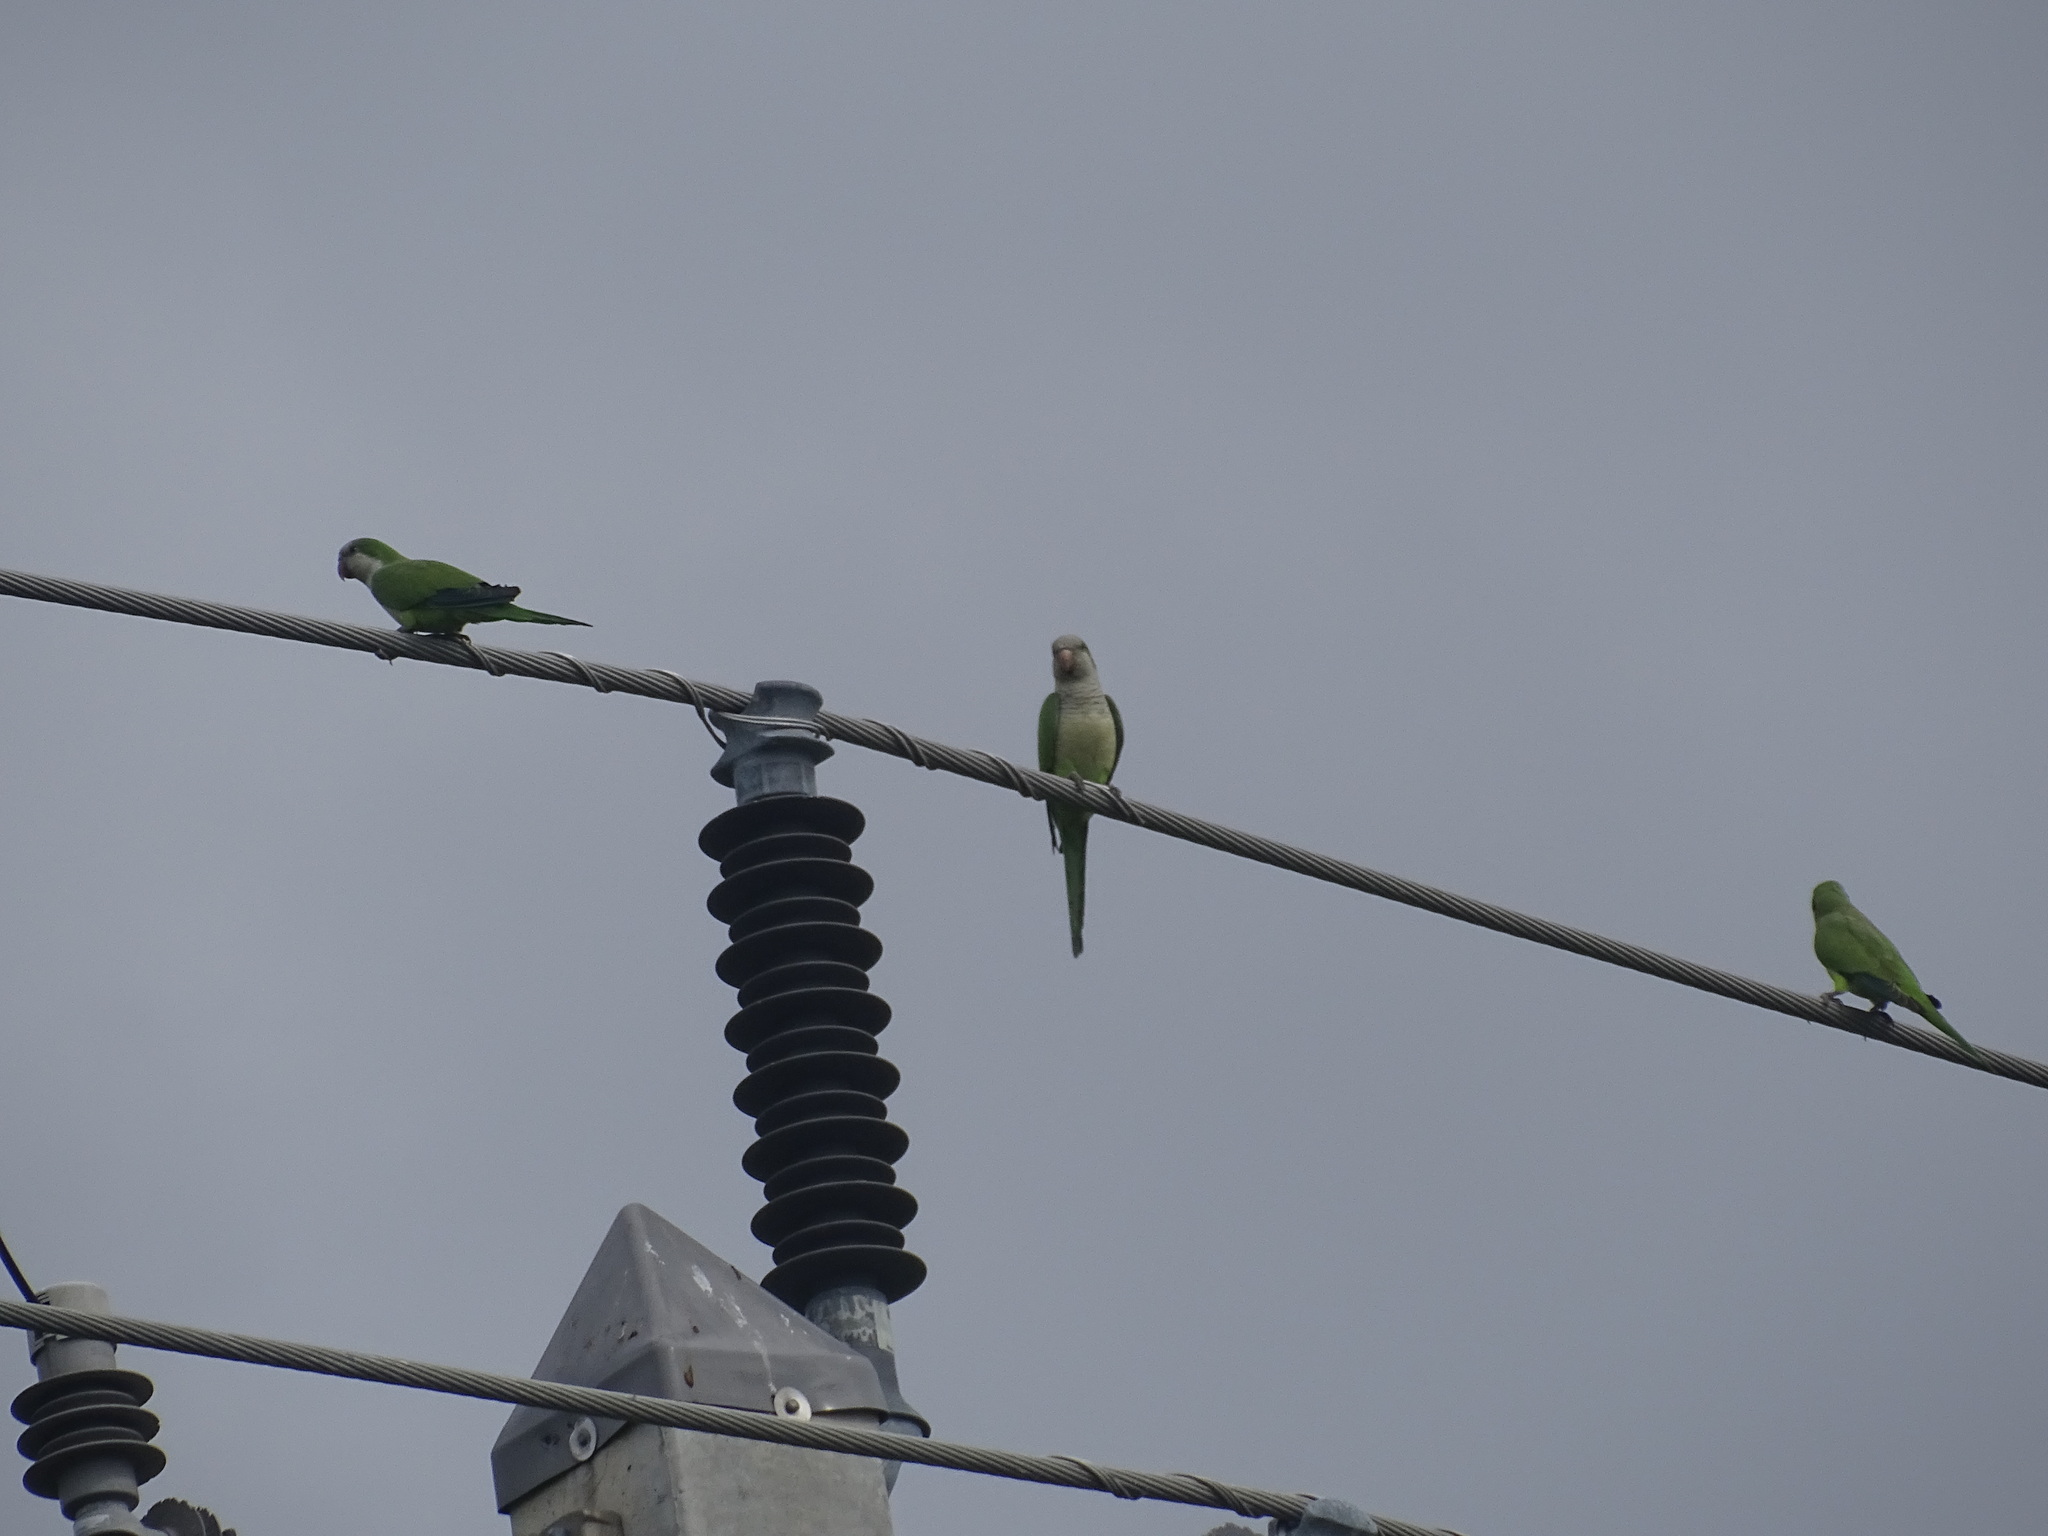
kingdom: Animalia
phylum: Chordata
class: Aves
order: Psittaciformes
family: Psittacidae
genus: Myiopsitta
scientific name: Myiopsitta monachus
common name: Monk parakeet
